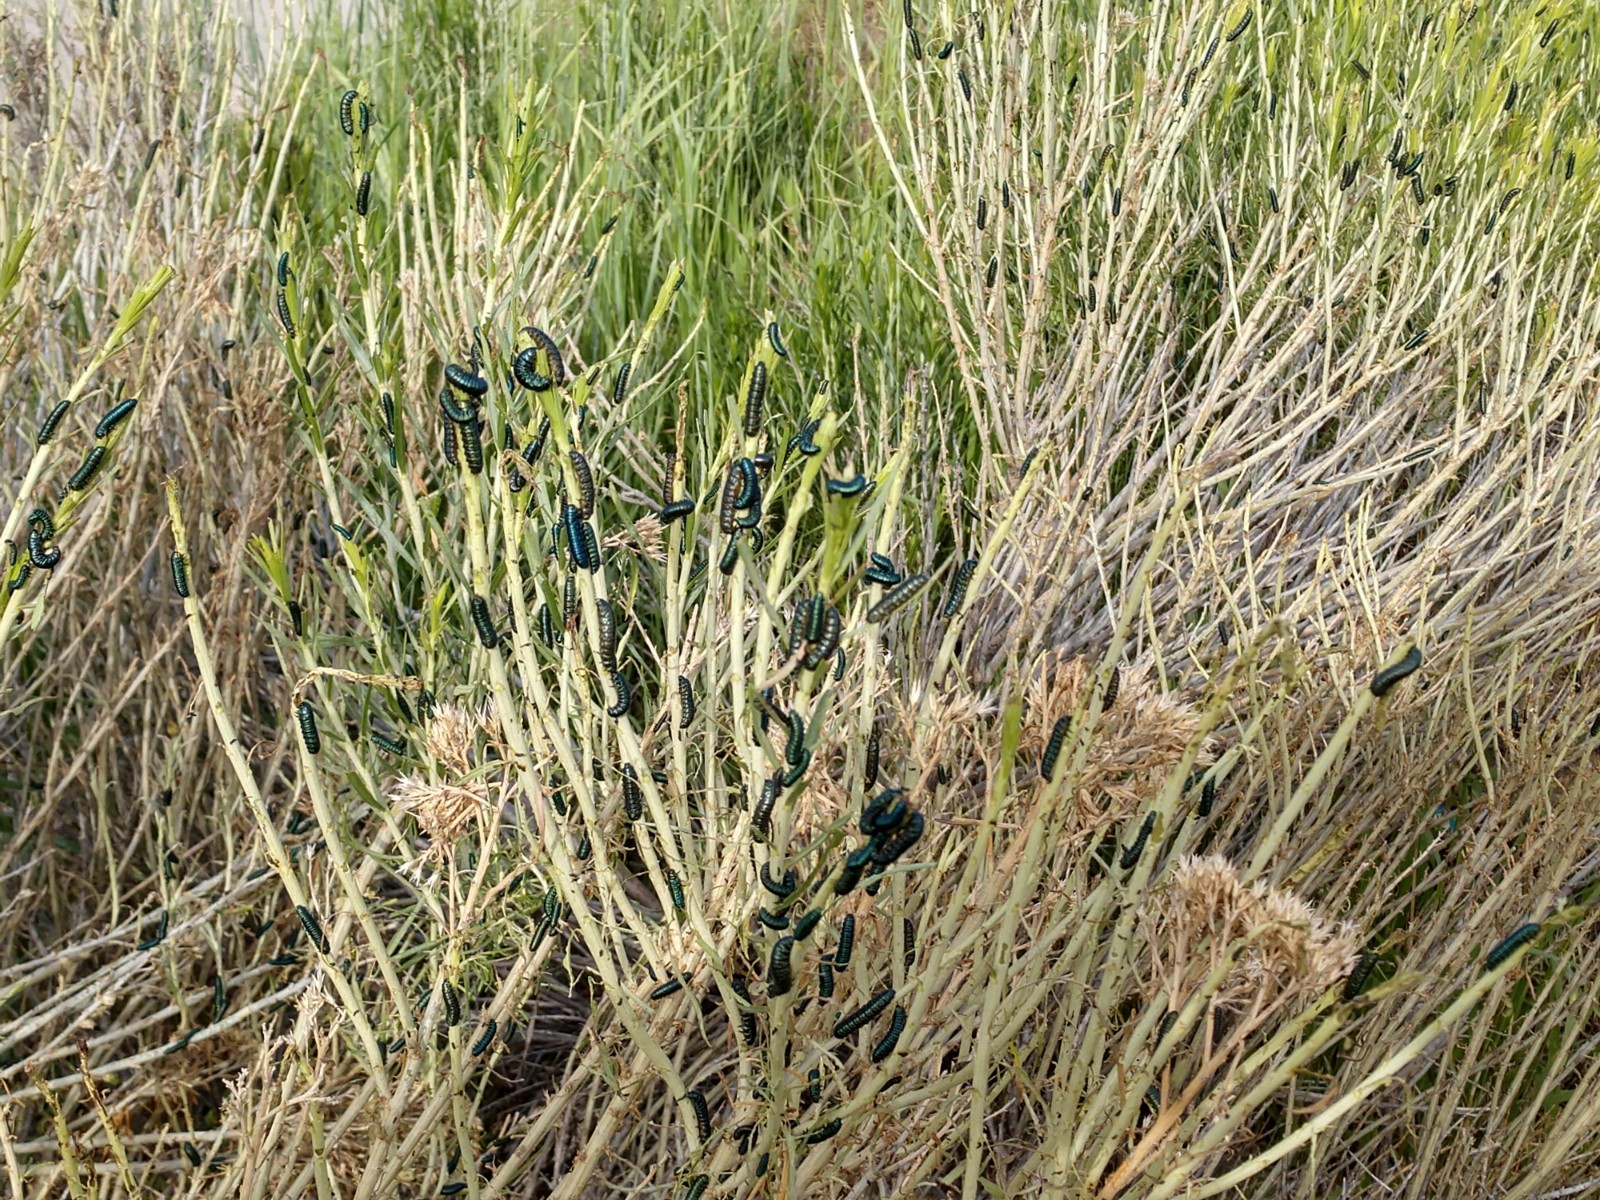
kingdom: Animalia
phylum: Arthropoda
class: Insecta
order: Coleoptera
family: Chrysomelidae
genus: Trirhabda
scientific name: Trirhabda nitidicollis
